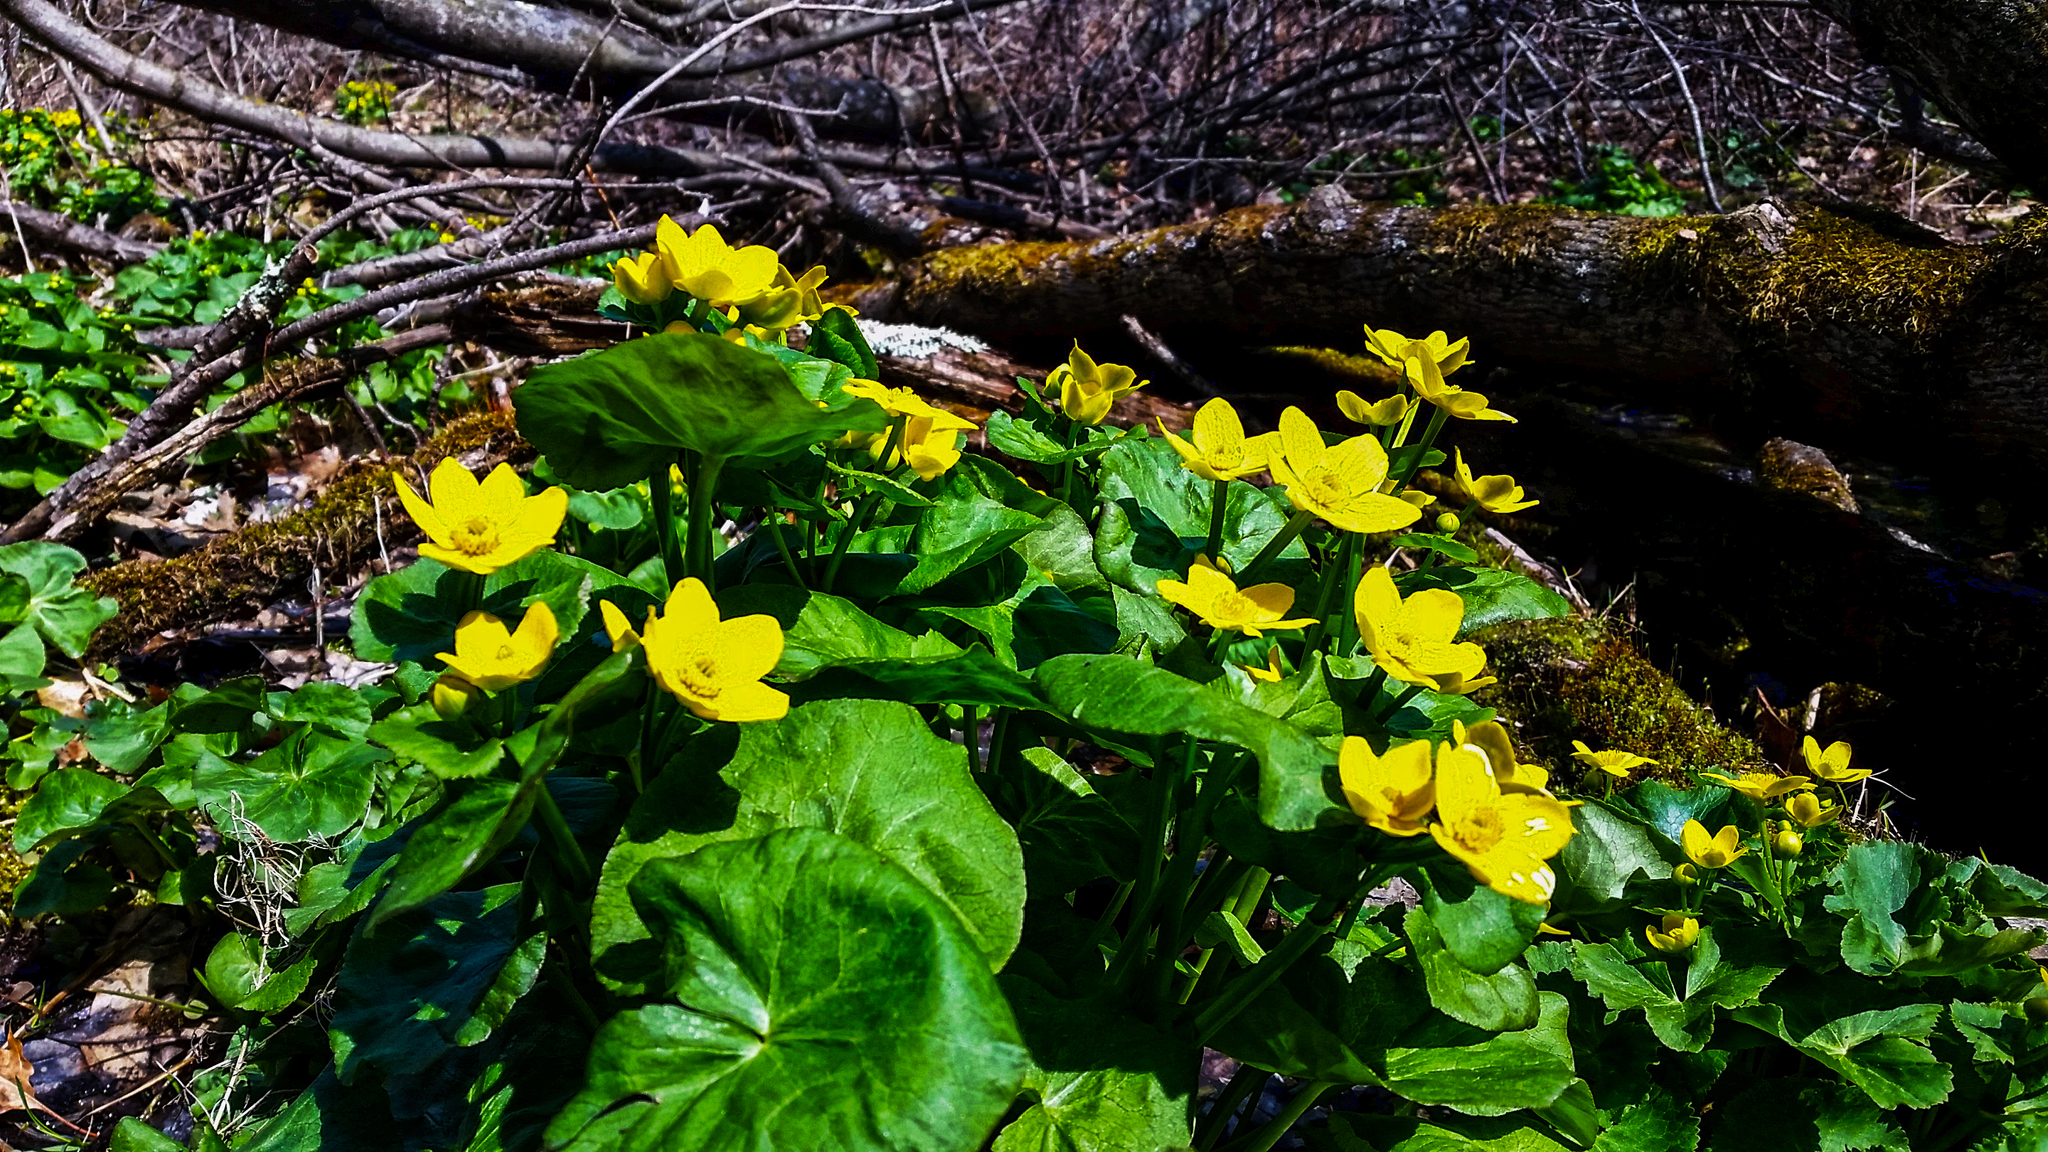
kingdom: Plantae
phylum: Tracheophyta
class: Magnoliopsida
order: Ranunculales
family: Ranunculaceae
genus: Caltha
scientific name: Caltha palustris
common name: Marsh marigold
